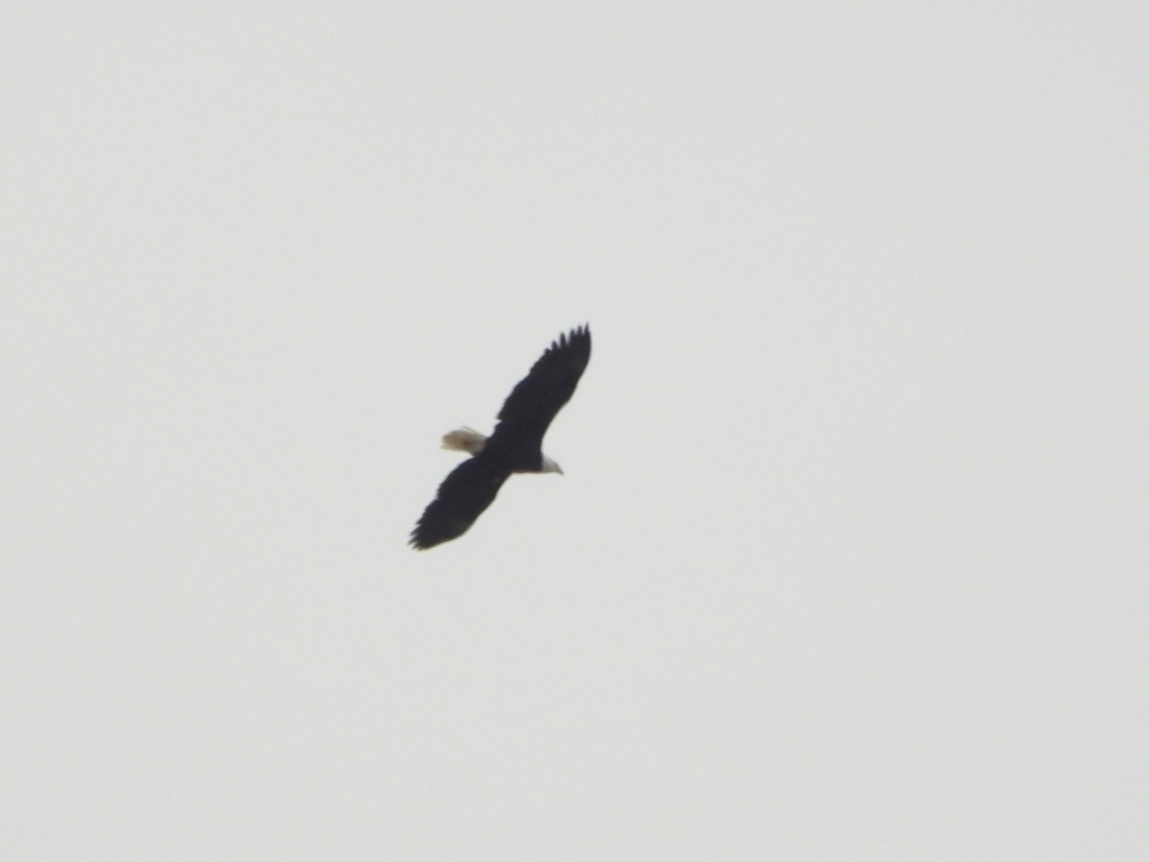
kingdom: Animalia
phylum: Chordata
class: Aves
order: Accipitriformes
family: Accipitridae
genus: Haliaeetus
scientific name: Haliaeetus leucocephalus
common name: Bald eagle
